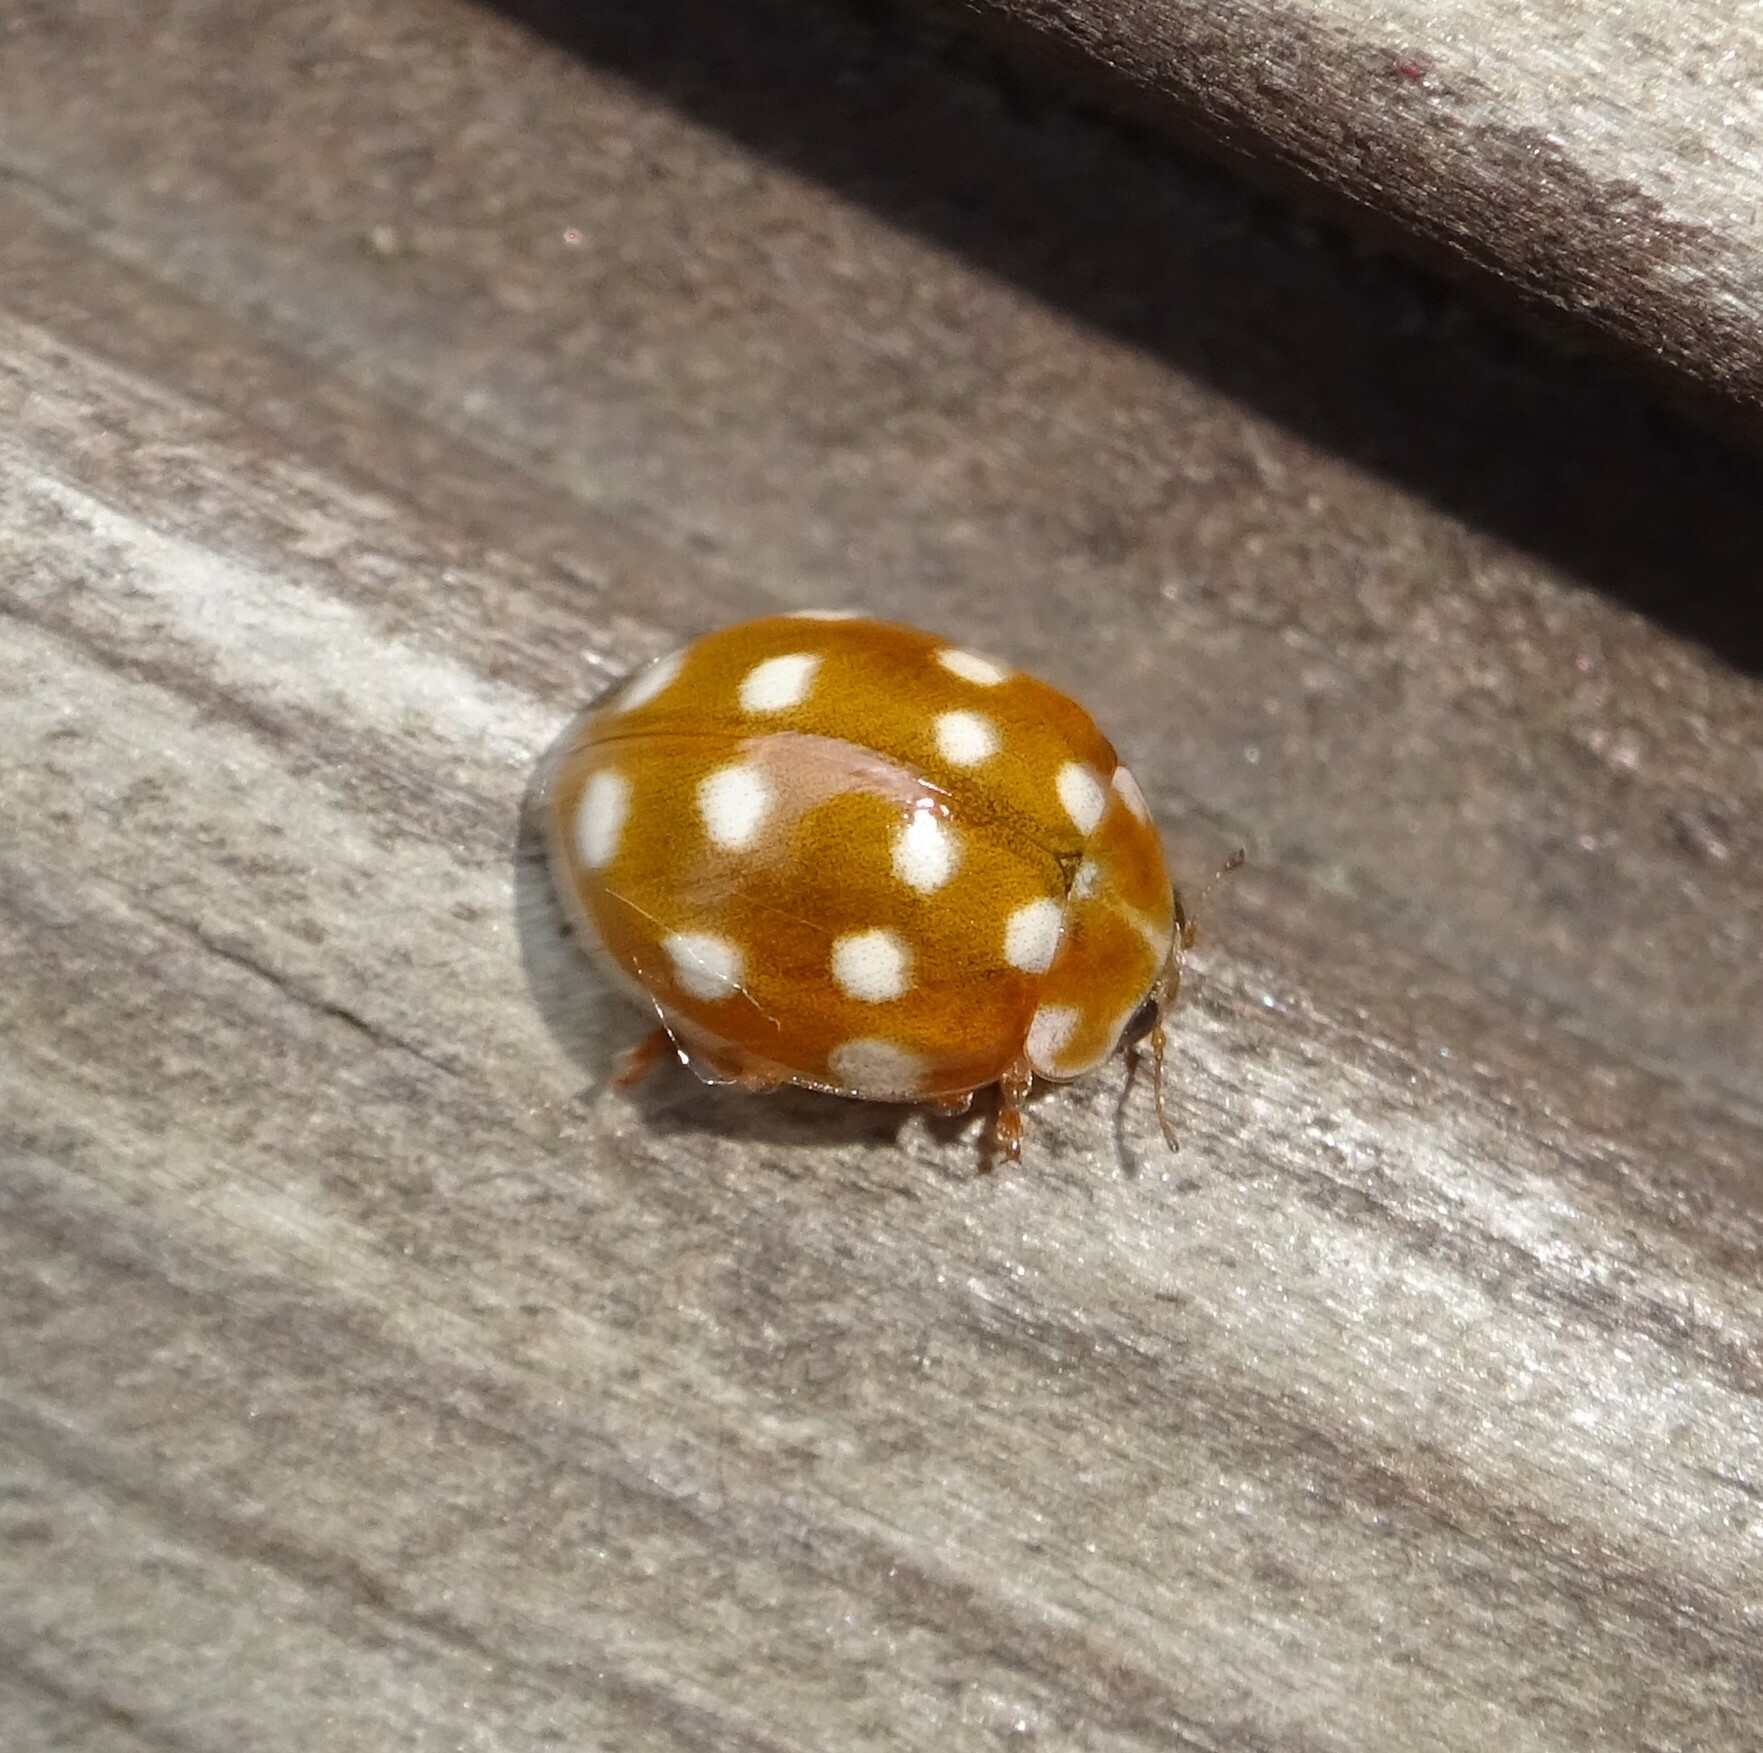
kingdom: Animalia
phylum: Arthropoda
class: Insecta
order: Coleoptera
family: Coccinellidae
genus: Calvia
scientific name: Calvia quatuordecimguttata
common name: Cream-spot ladybird
